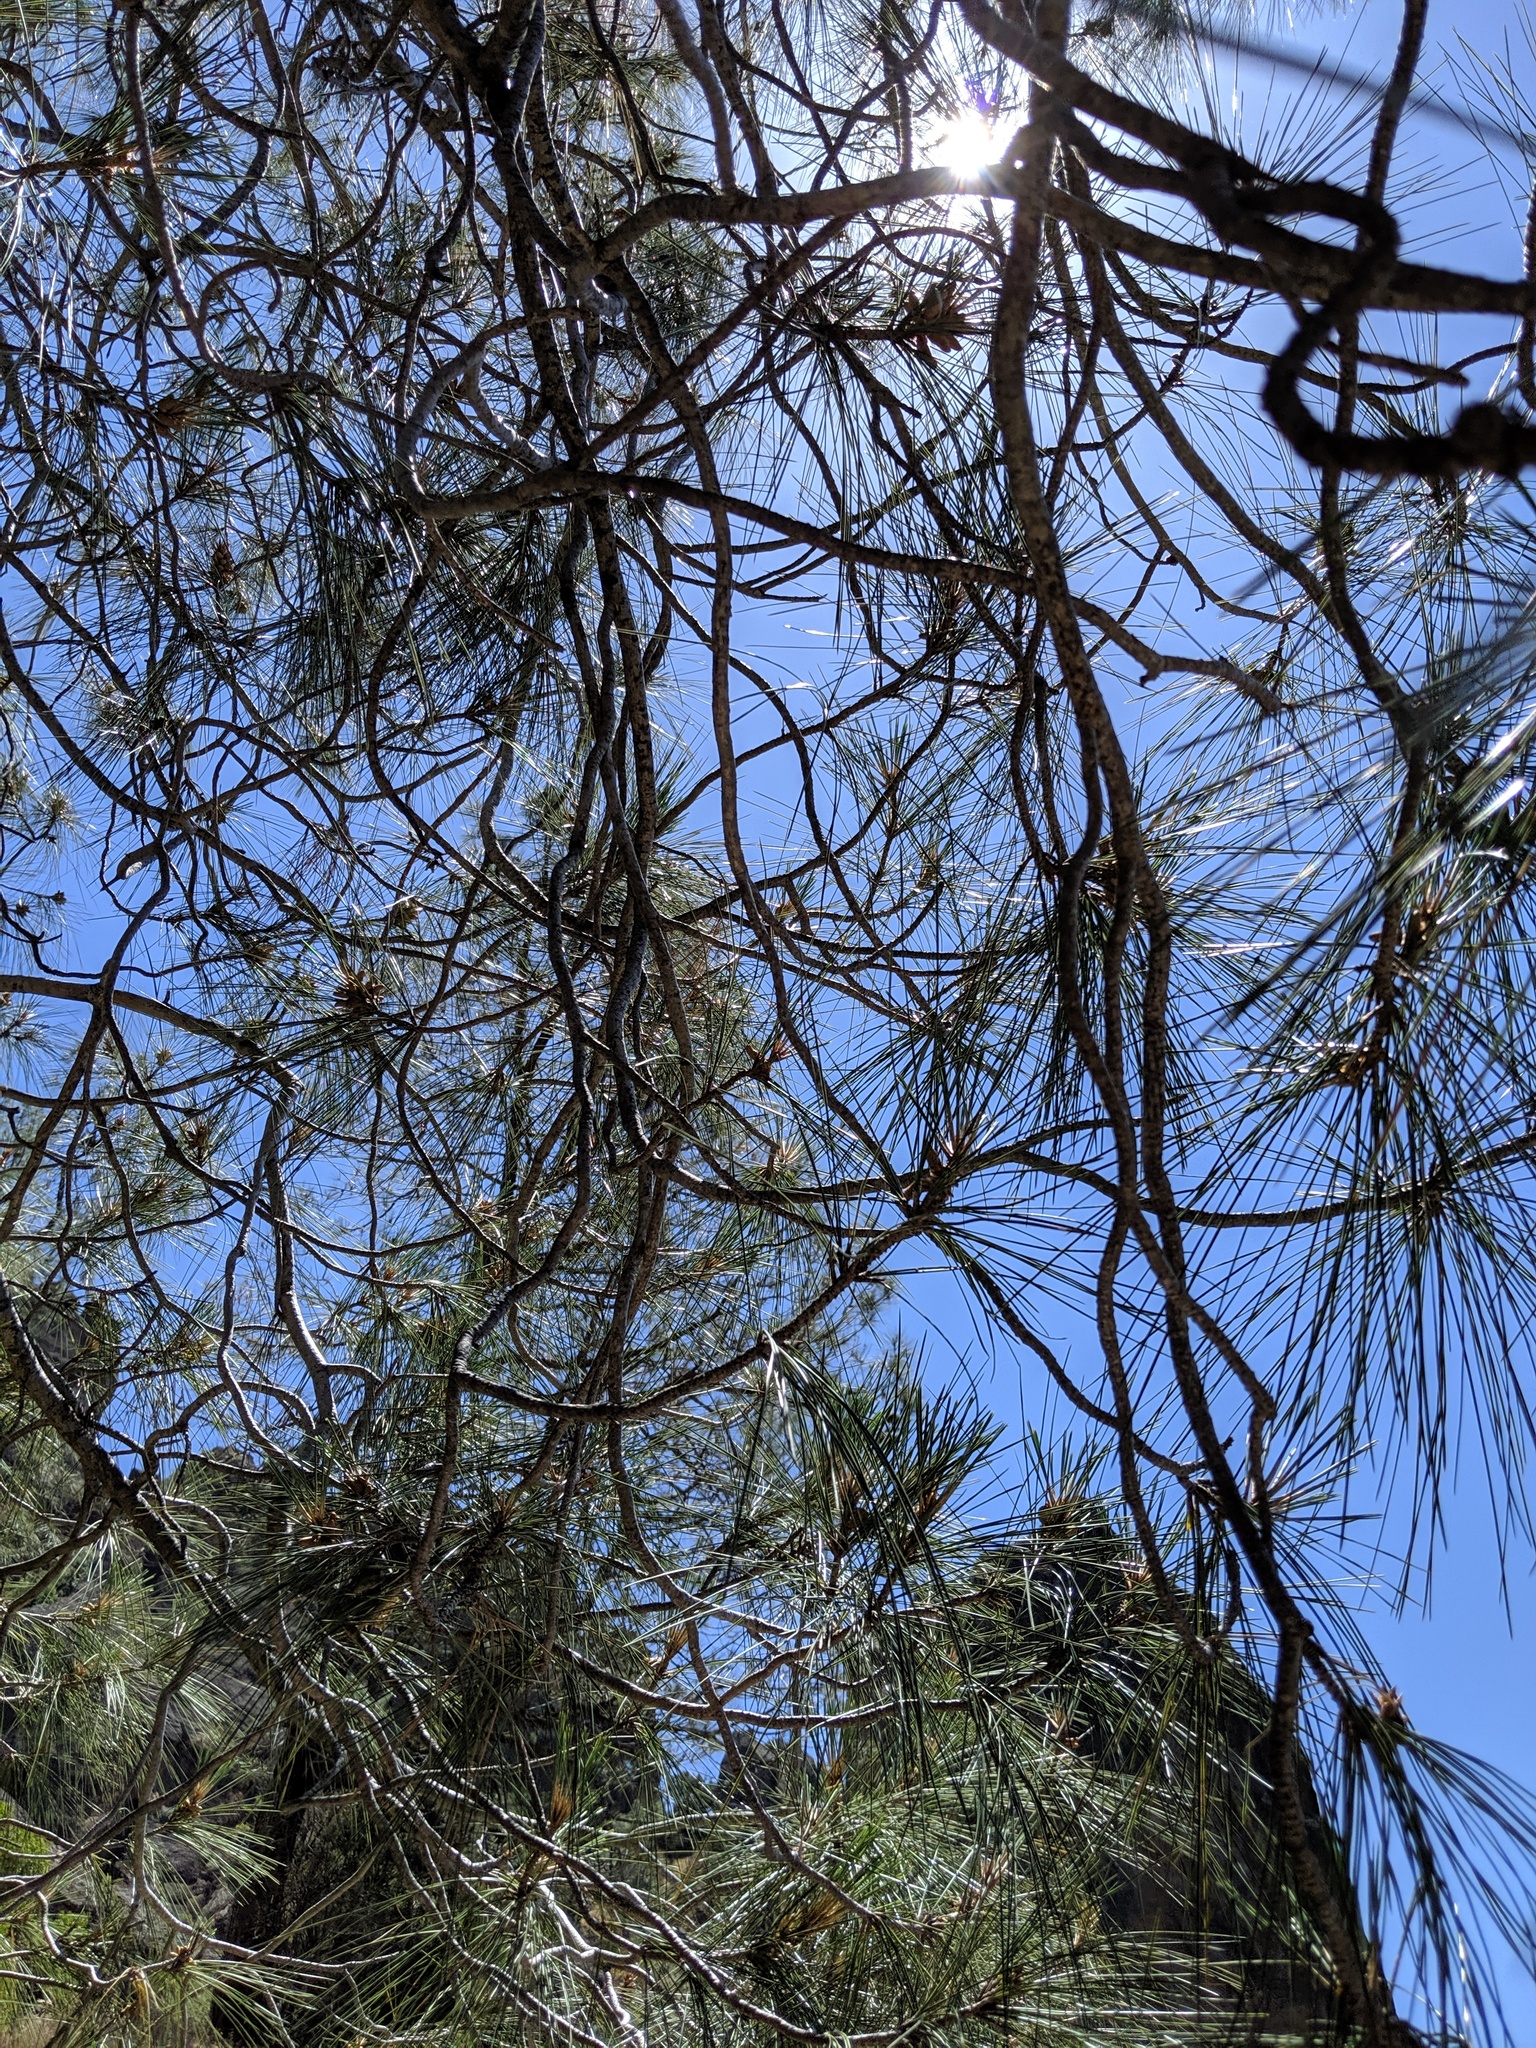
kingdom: Plantae
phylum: Tracheophyta
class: Pinopsida
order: Pinales
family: Pinaceae
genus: Pinus
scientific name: Pinus sabiniana
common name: Bull pine
